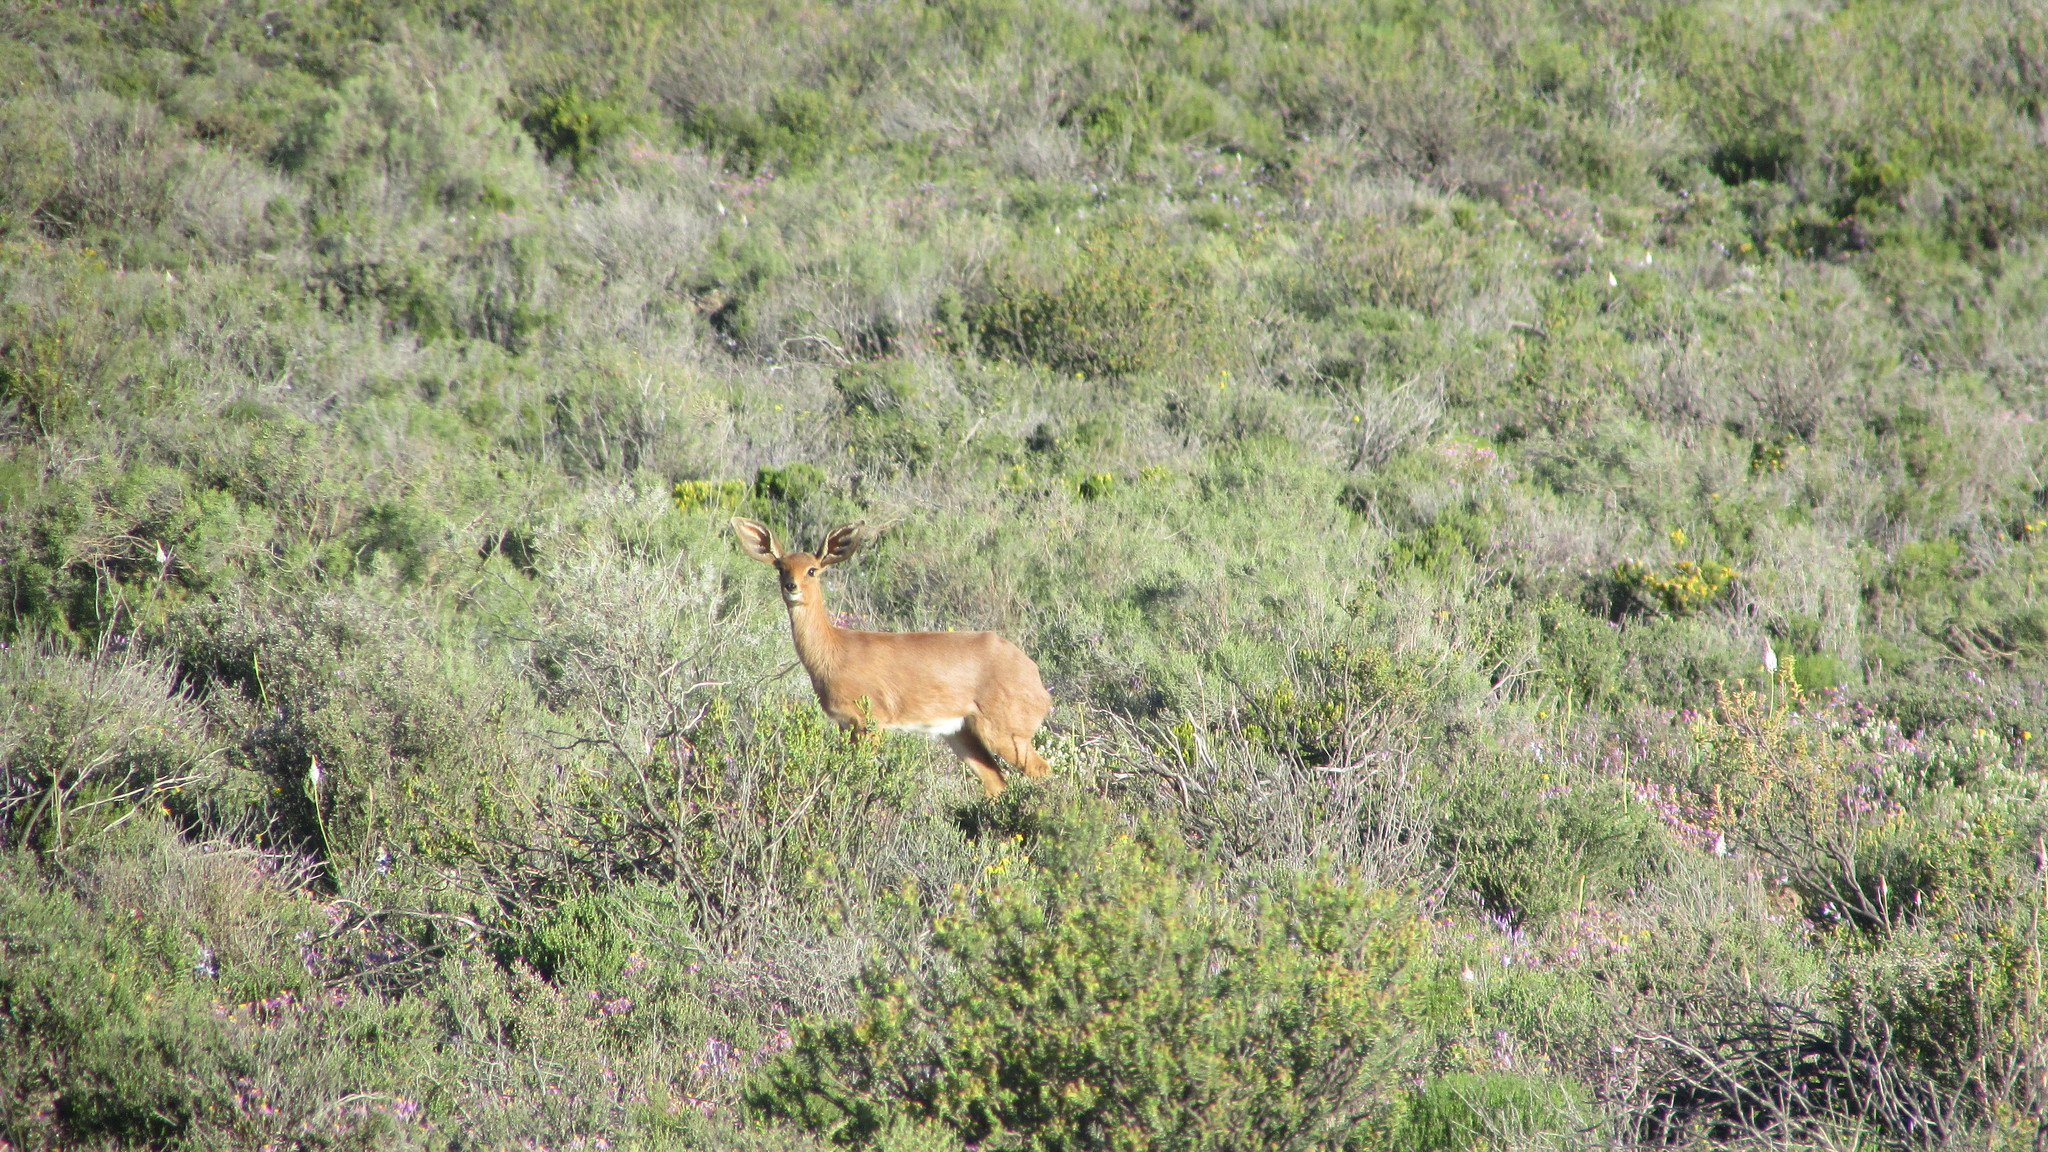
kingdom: Animalia
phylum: Chordata
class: Mammalia
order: Artiodactyla
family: Bovidae
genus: Raphicerus
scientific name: Raphicerus campestris
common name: Steenbok
